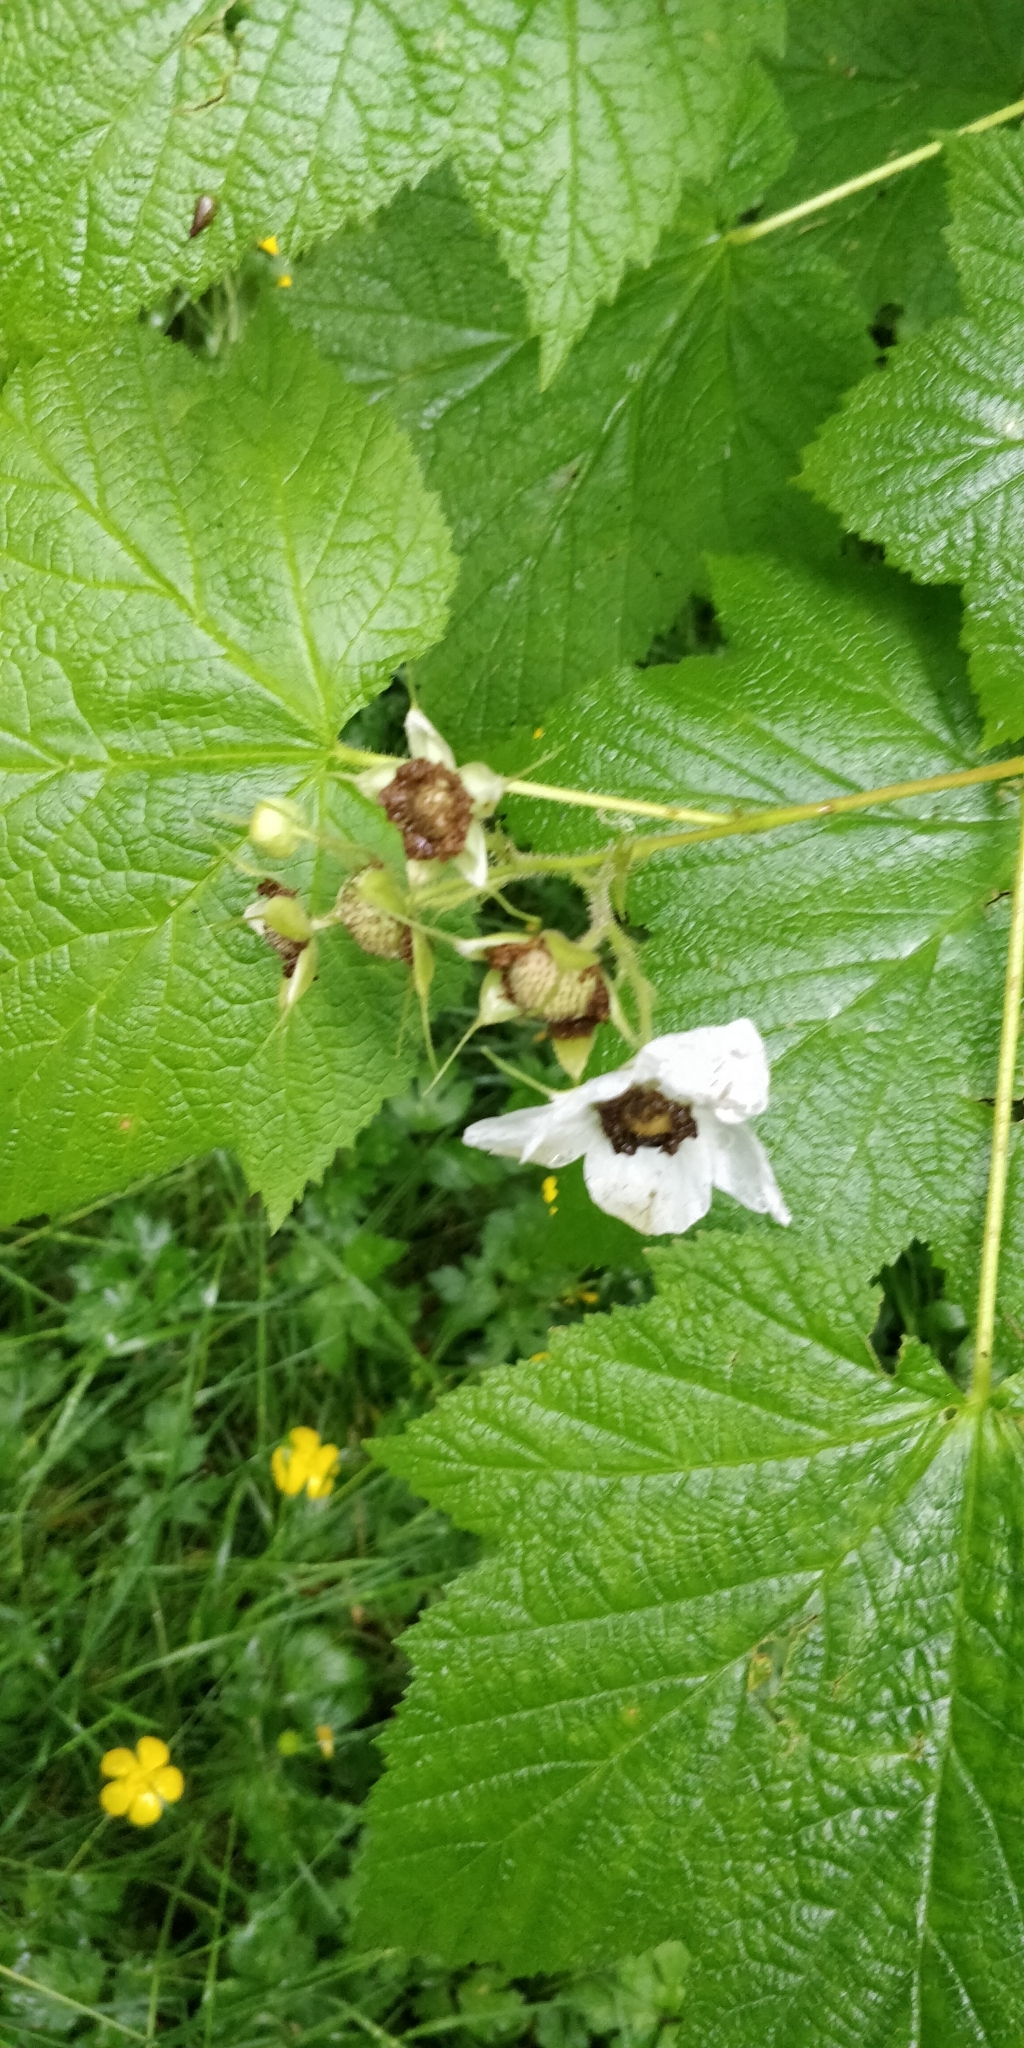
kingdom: Plantae
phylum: Tracheophyta
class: Magnoliopsida
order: Rosales
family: Rosaceae
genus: Rubus
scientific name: Rubus parviflorus
